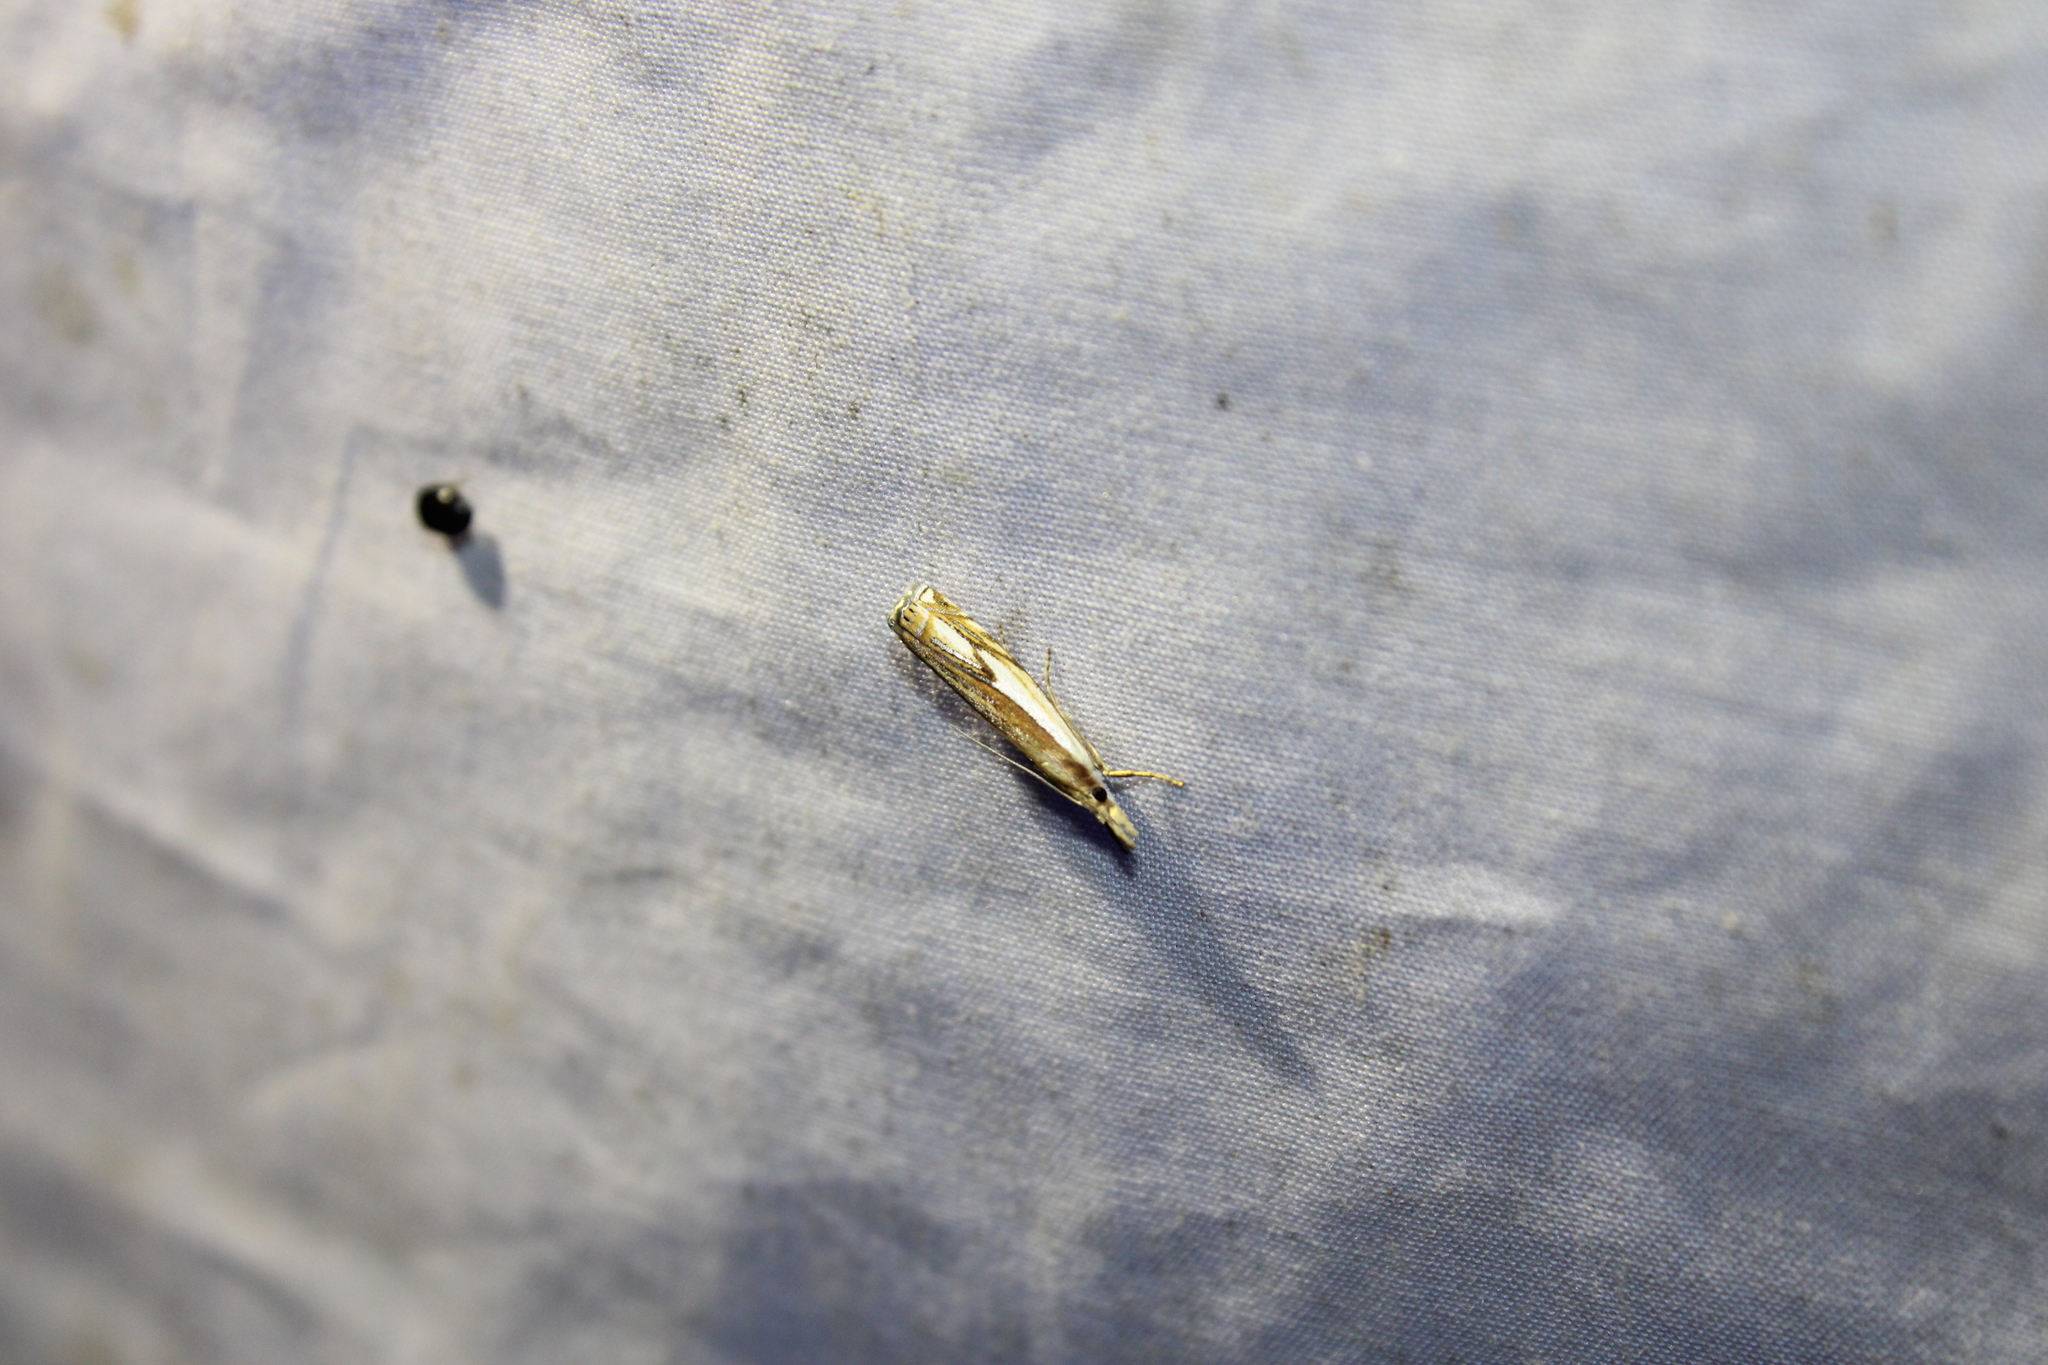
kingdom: Animalia
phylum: Arthropoda
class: Insecta
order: Lepidoptera
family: Crambidae
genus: Crambus
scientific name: Crambus agitatellus
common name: Double-banded grass-veneer
